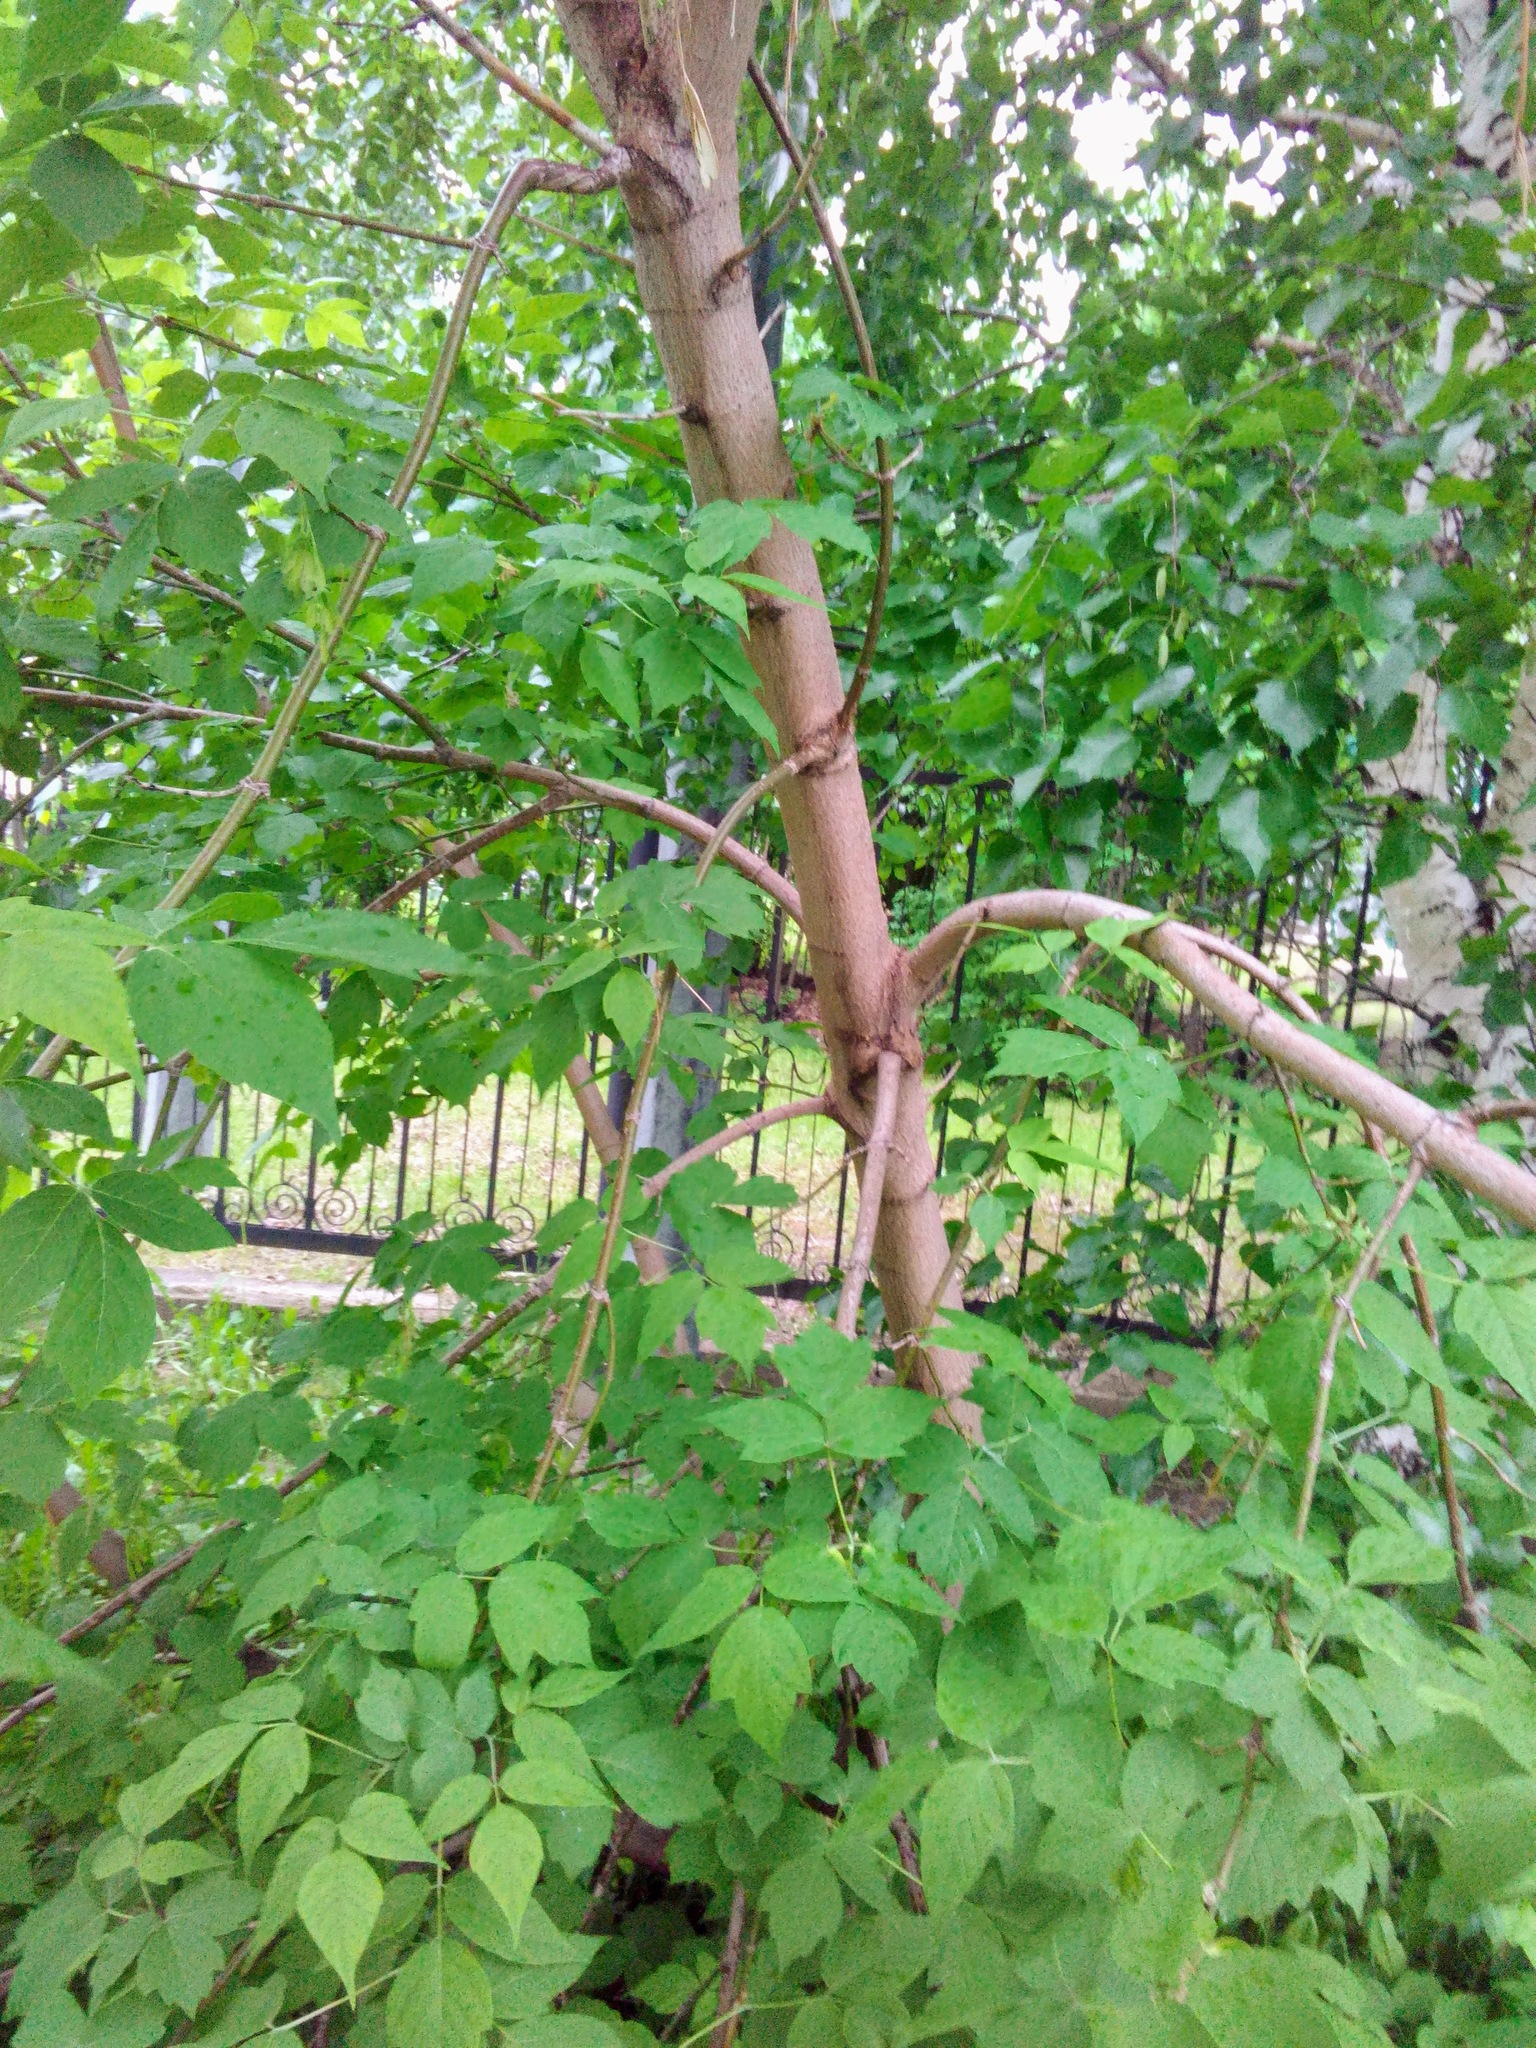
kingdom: Plantae
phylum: Tracheophyta
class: Magnoliopsida
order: Sapindales
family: Sapindaceae
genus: Acer
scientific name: Acer negundo
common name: Ashleaf maple
